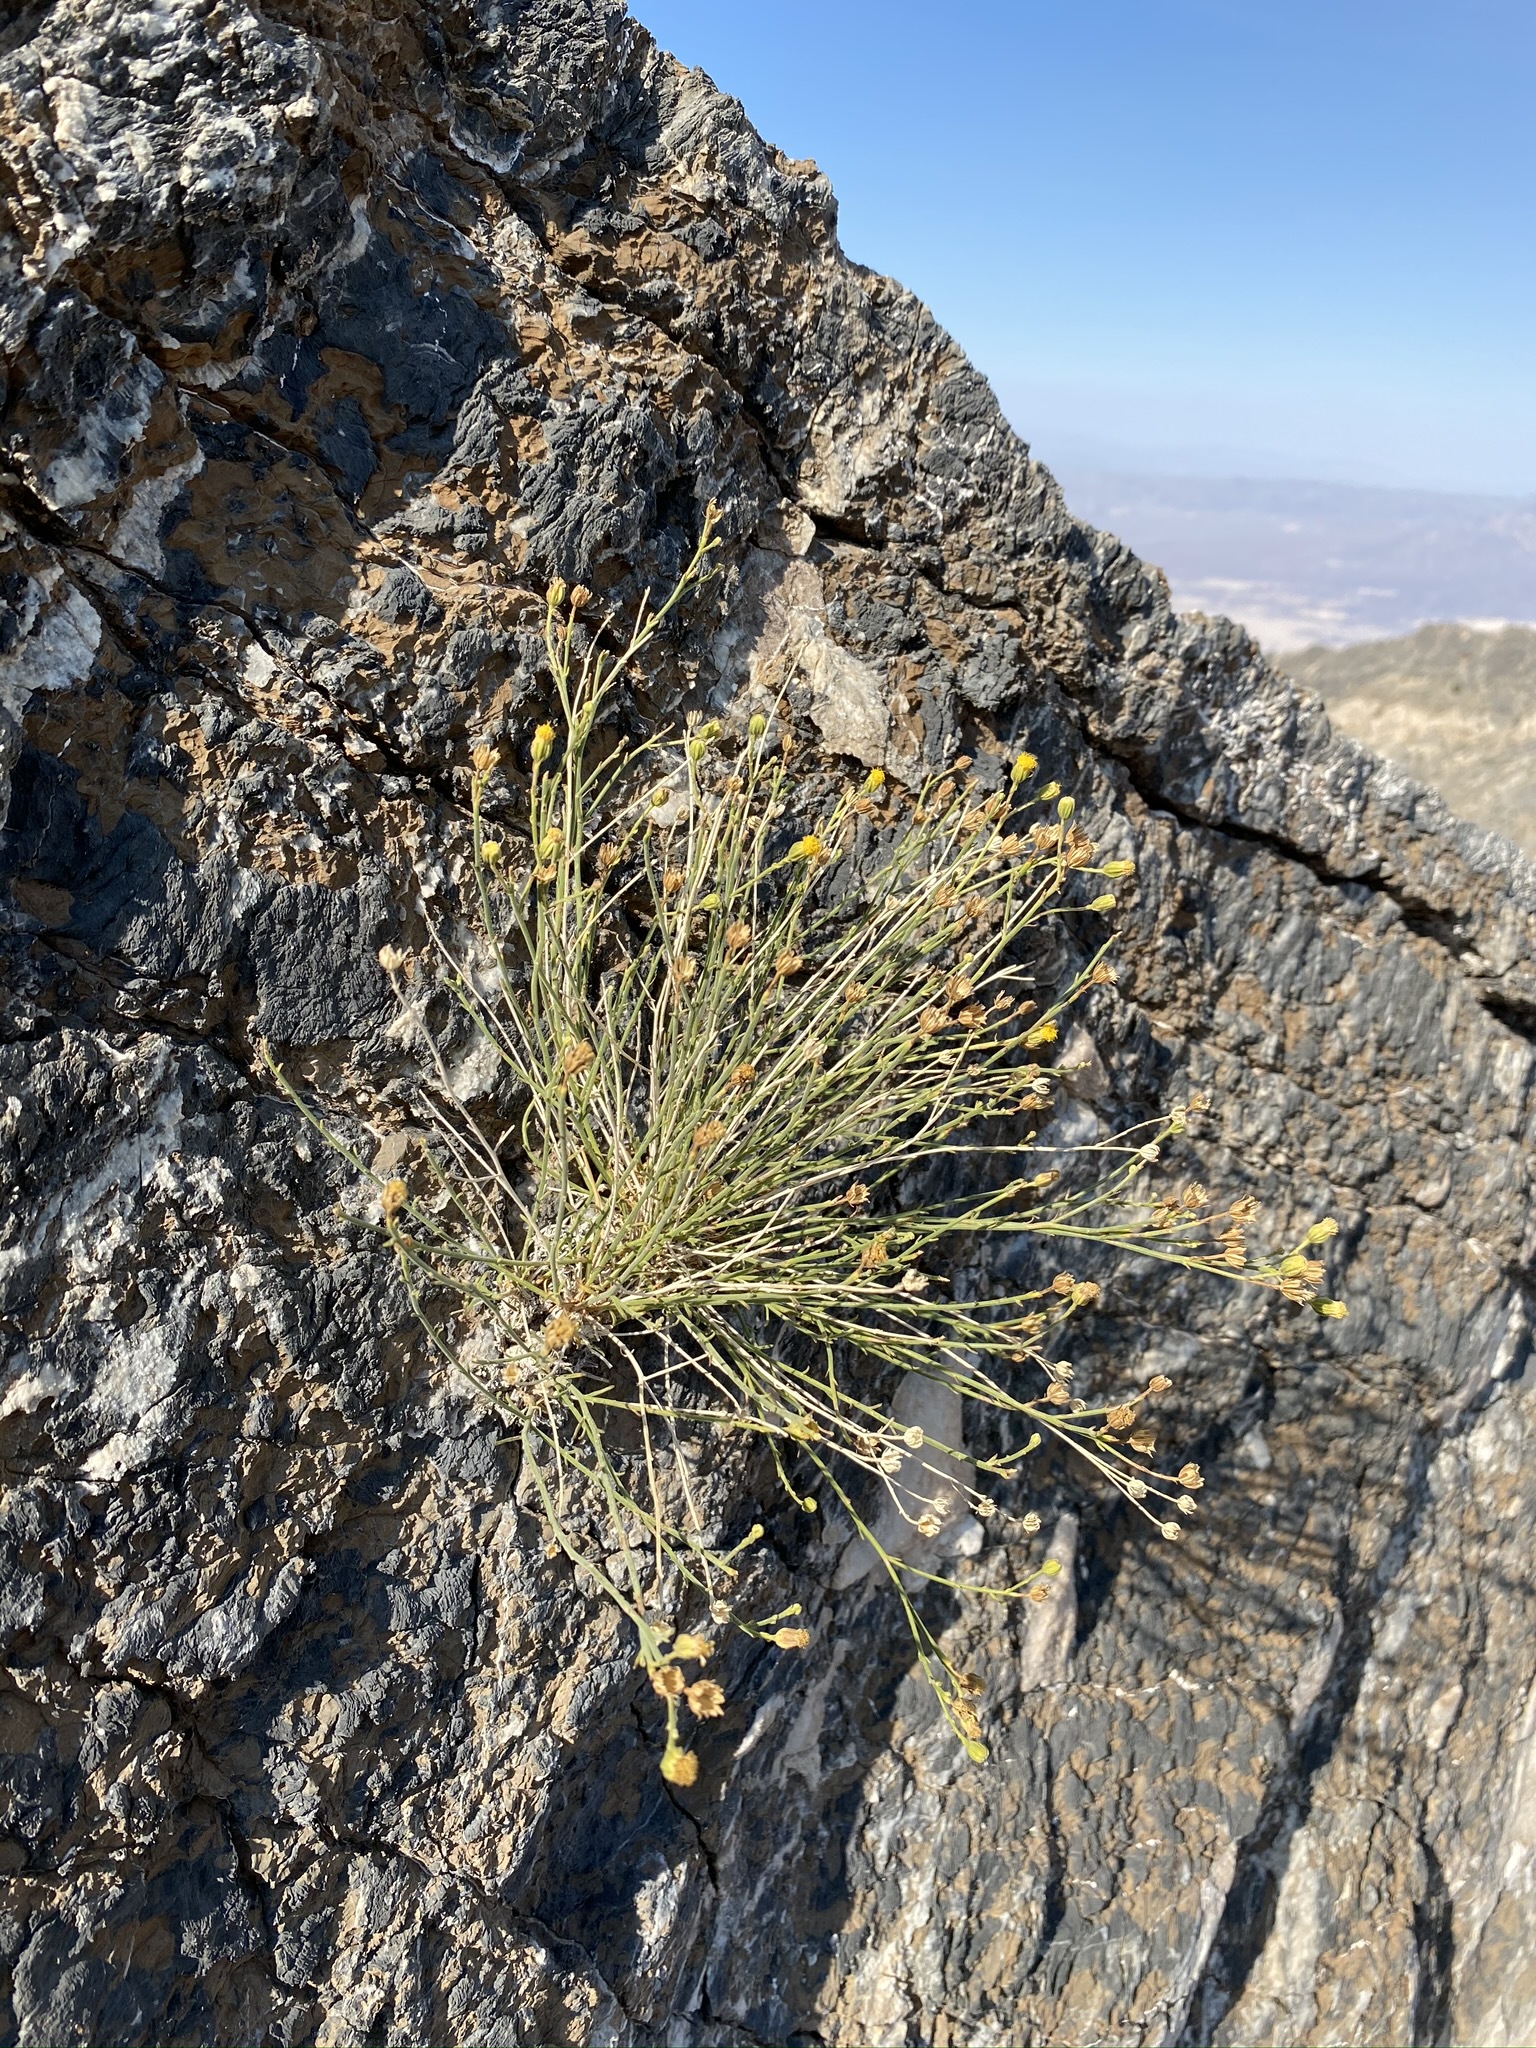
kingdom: Plantae
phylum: Tracheophyta
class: Magnoliopsida
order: Asterales
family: Asteraceae
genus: Laphamia
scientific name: Laphamia megalocephala
